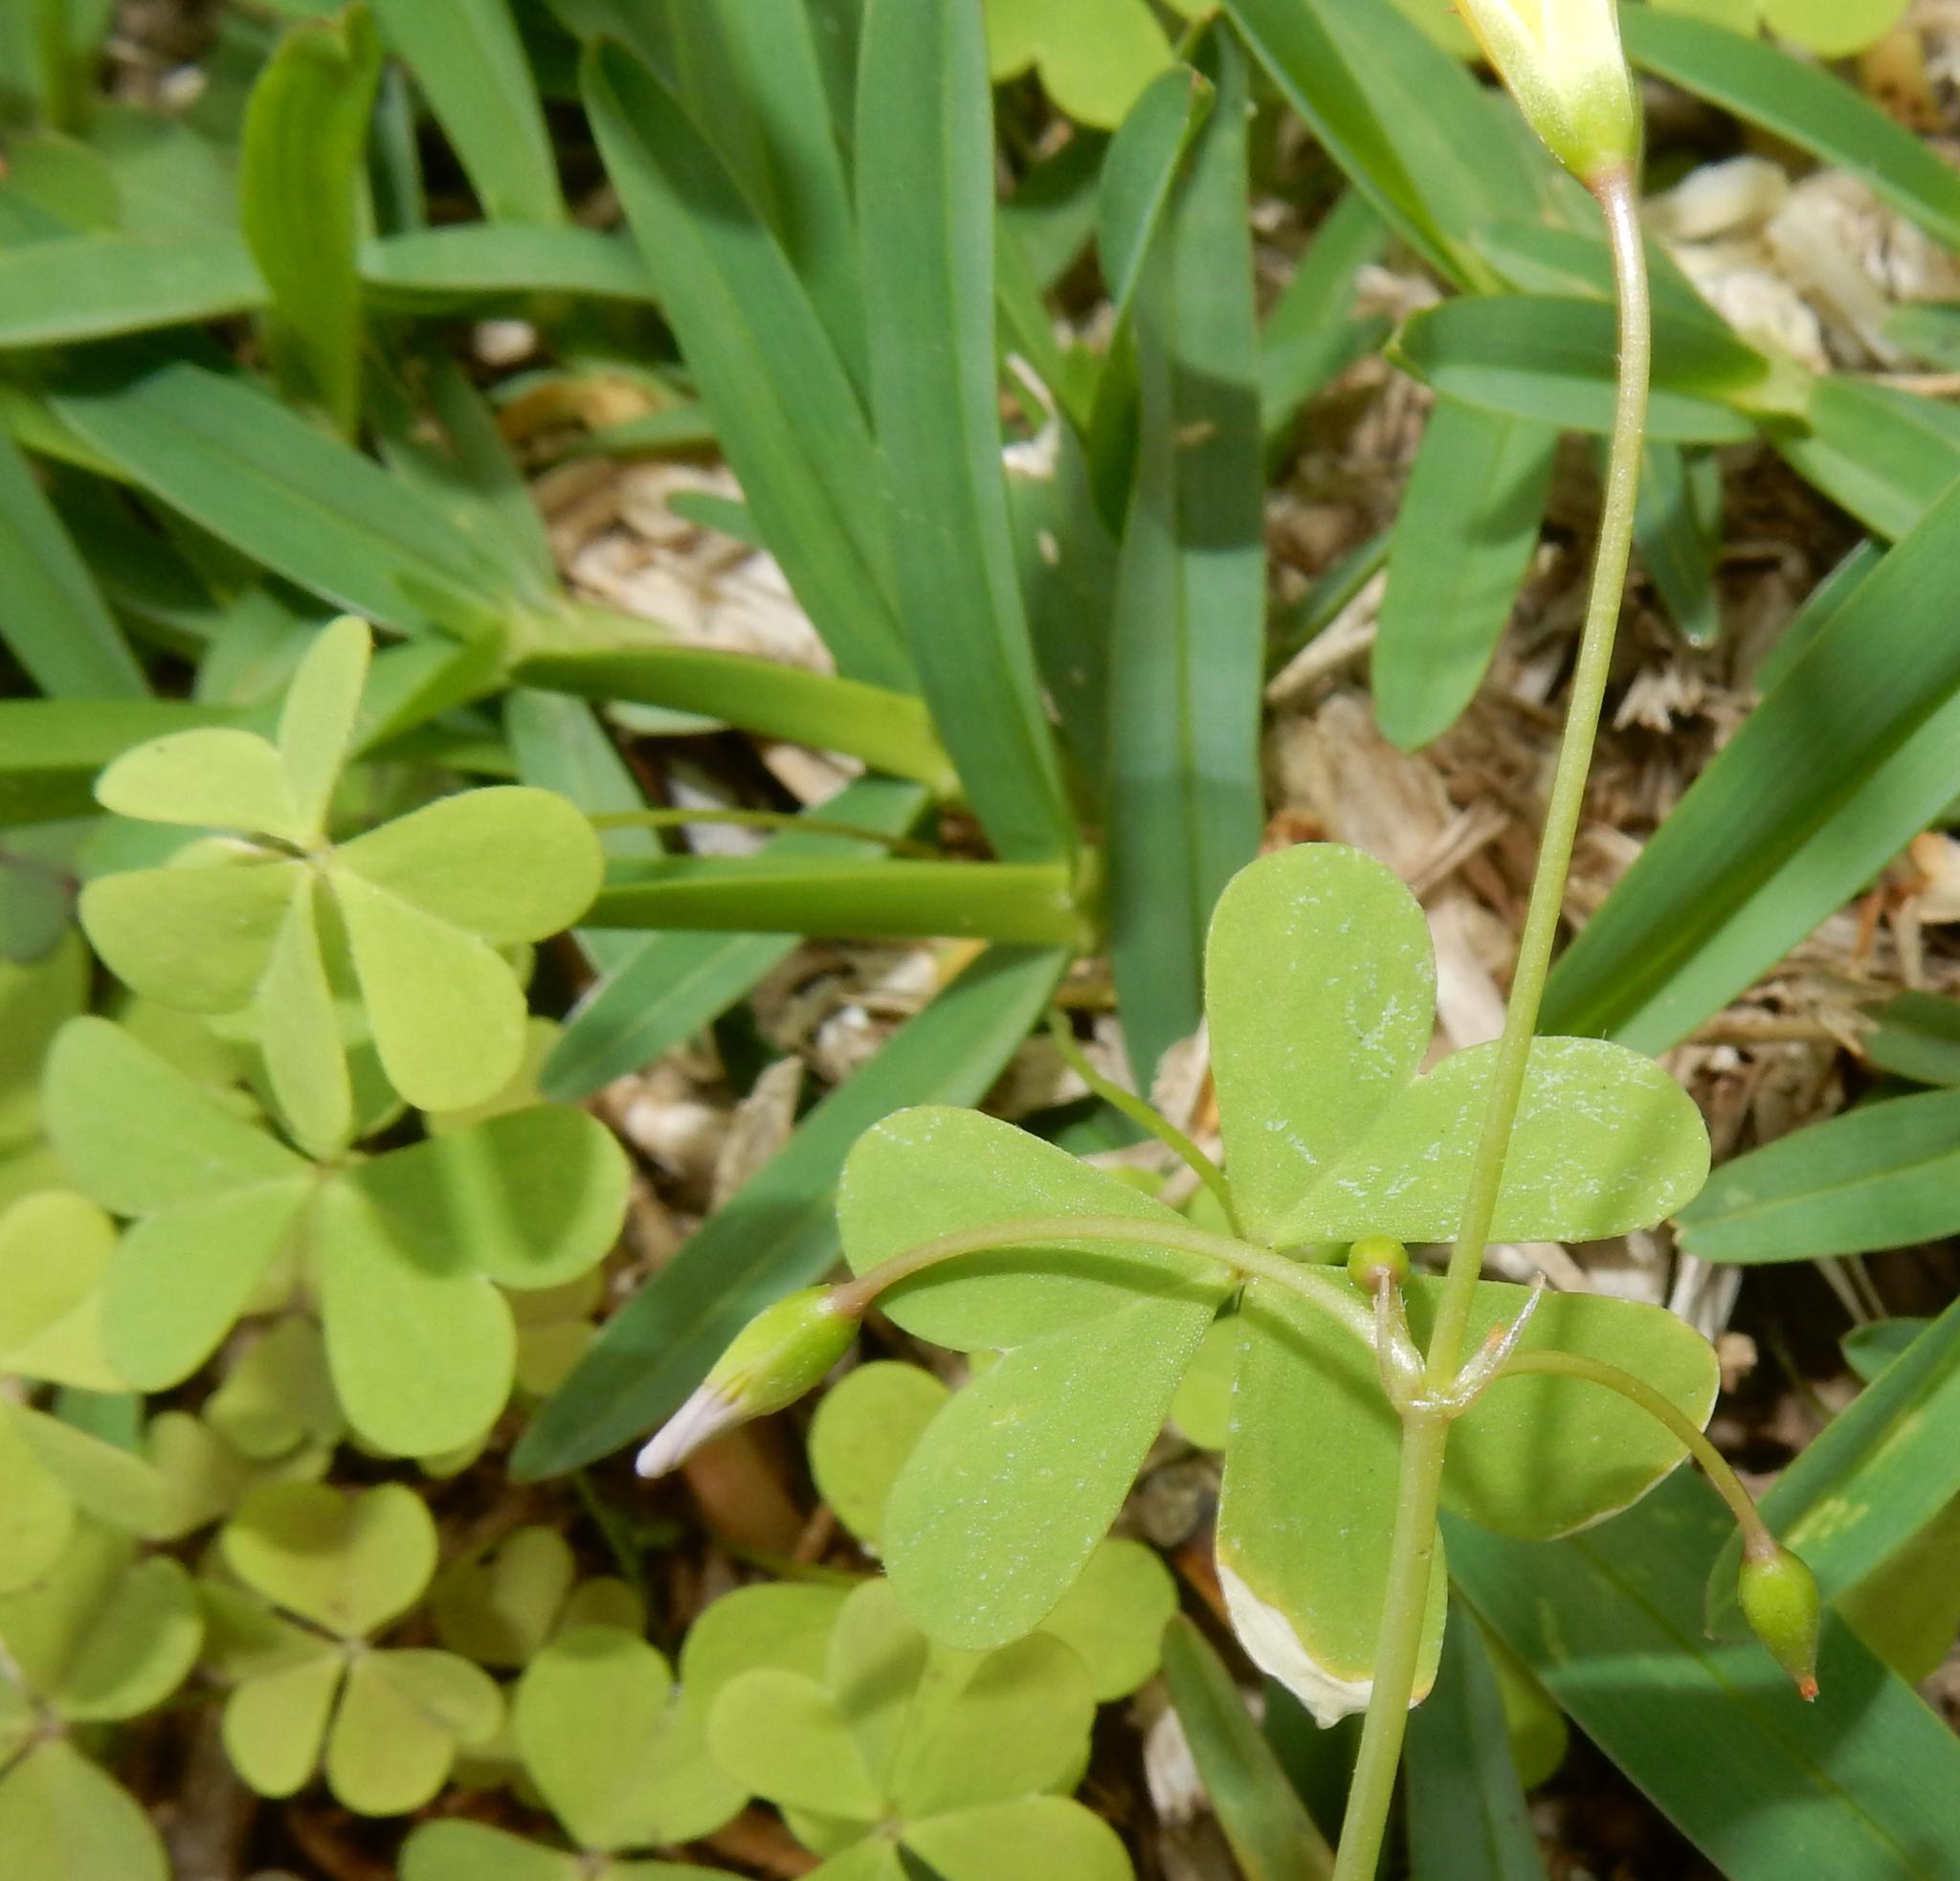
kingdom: Plantae
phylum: Tracheophyta
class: Magnoliopsida
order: Oxalidales
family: Oxalidaceae
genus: Oxalis
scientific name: Oxalis caprina
